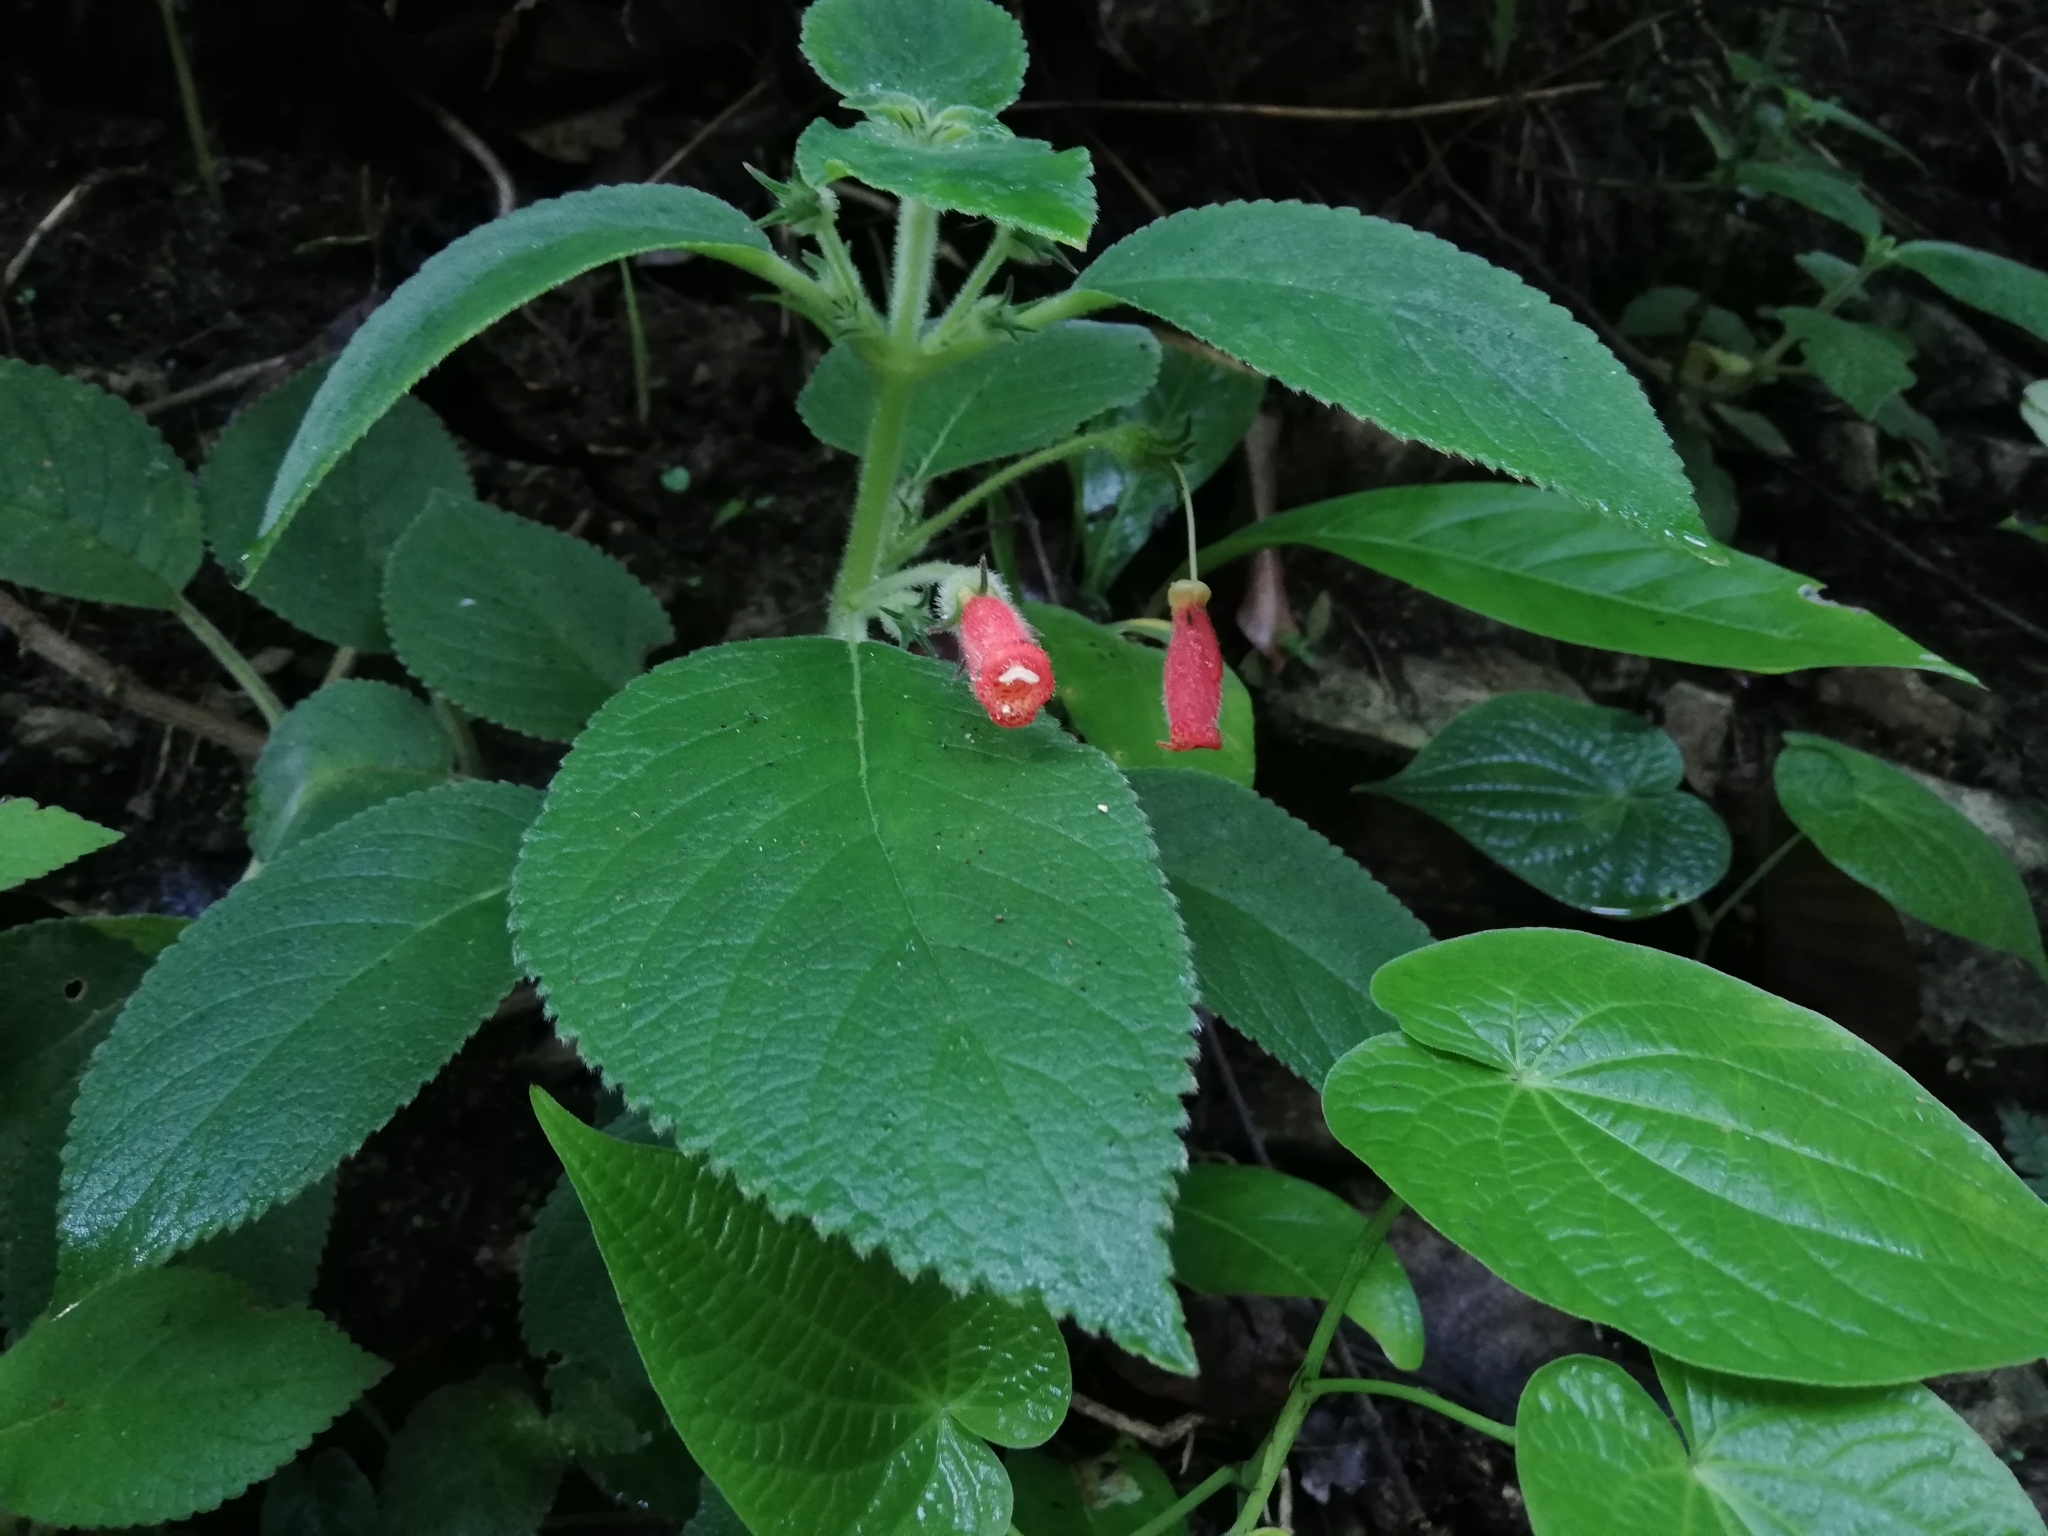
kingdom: Plantae
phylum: Tracheophyta
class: Magnoliopsida
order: Lamiales
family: Gesneriaceae
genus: Kohleria
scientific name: Kohleria hirsuta
